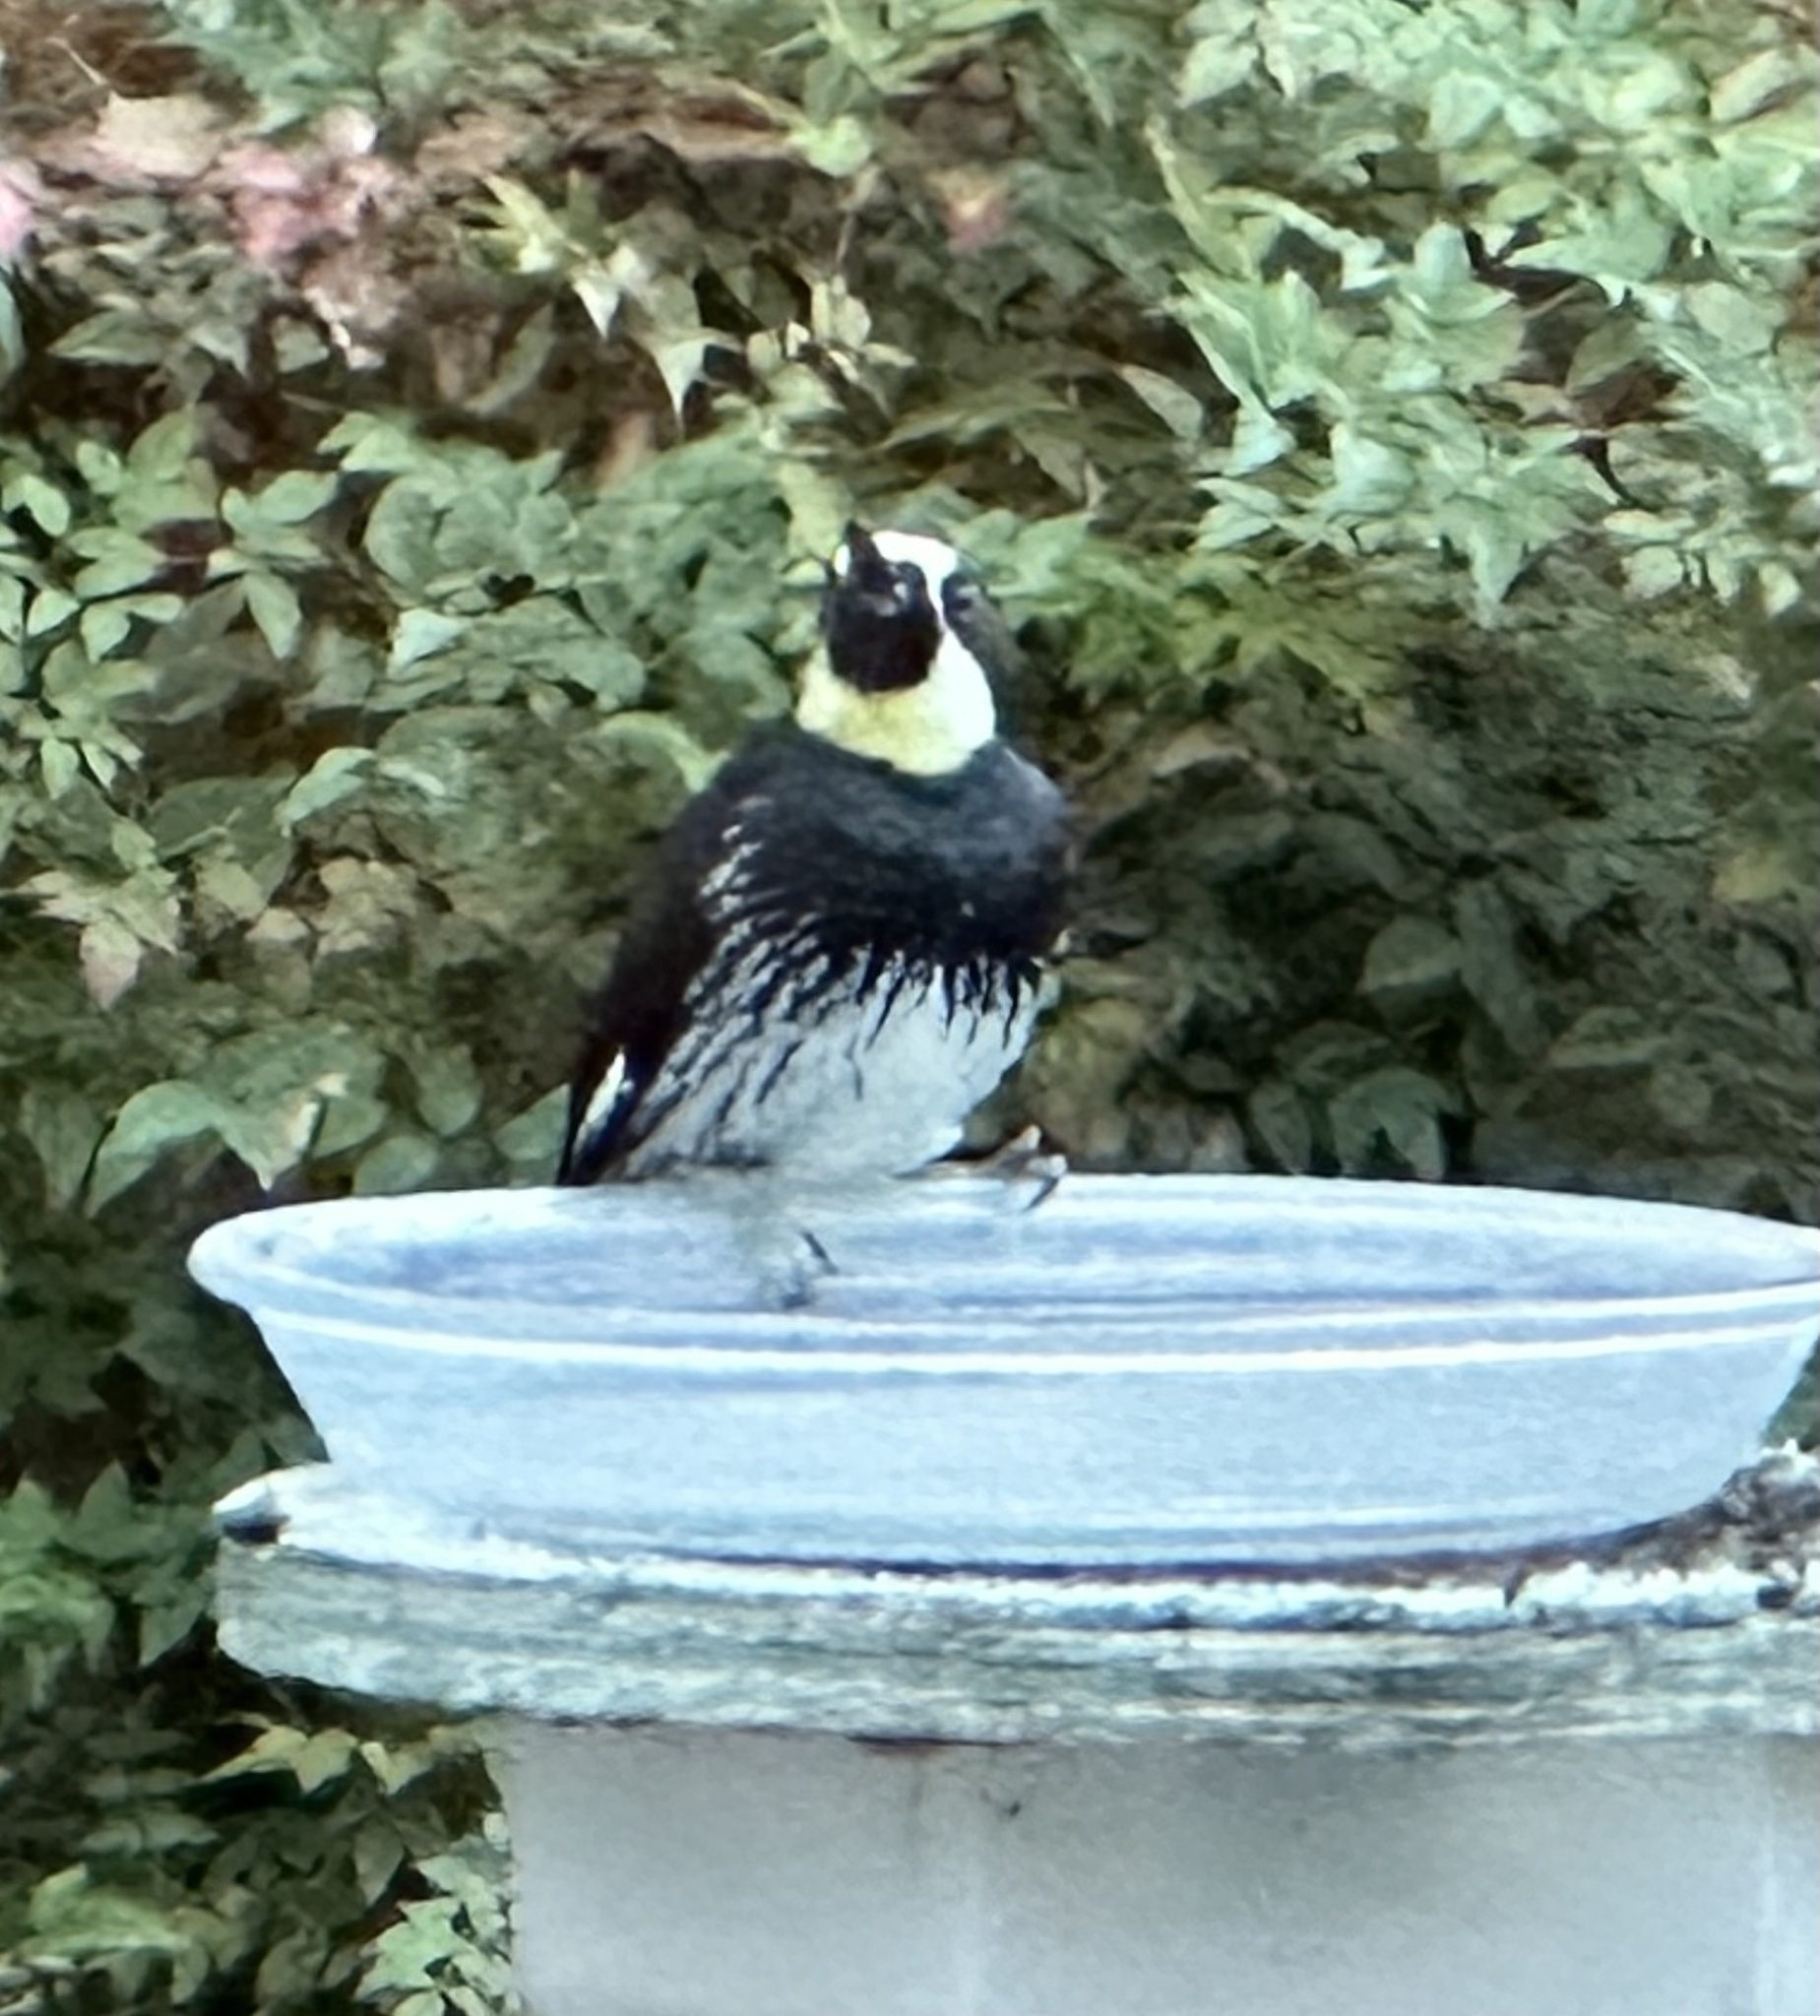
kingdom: Animalia
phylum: Chordata
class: Aves
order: Piciformes
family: Picidae
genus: Melanerpes
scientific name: Melanerpes formicivorus
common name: Acorn woodpecker
